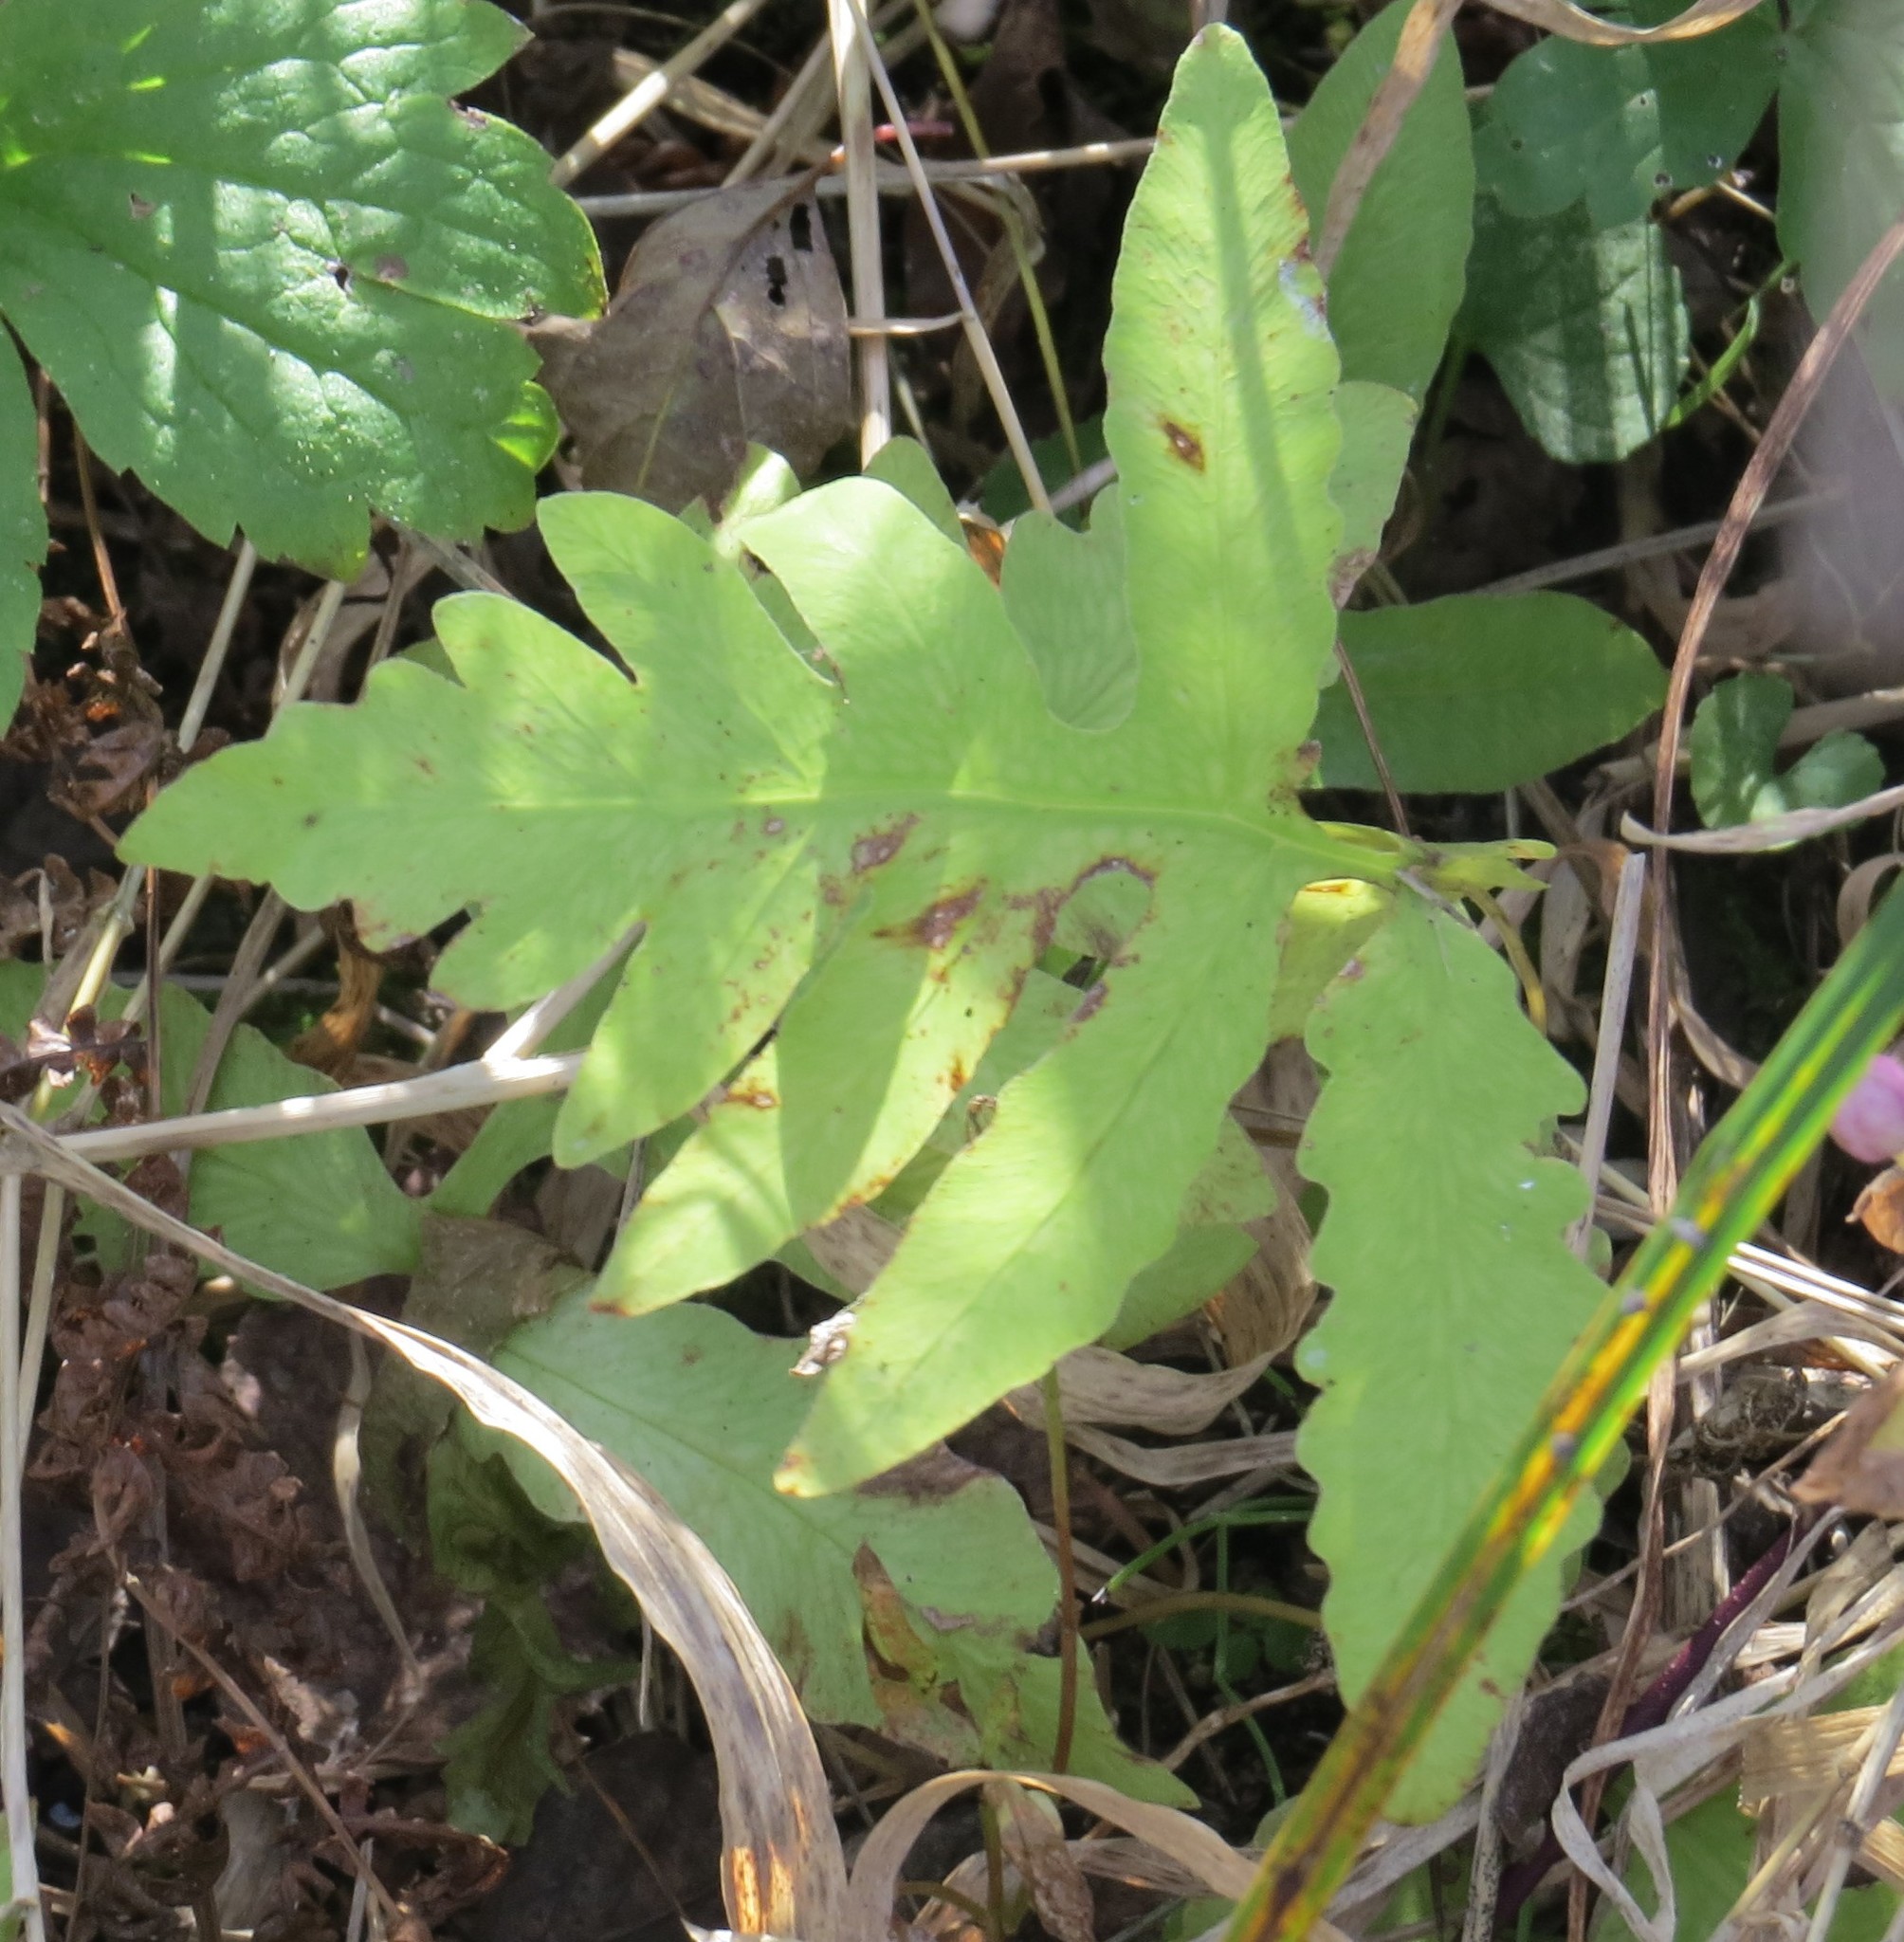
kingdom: Plantae
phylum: Tracheophyta
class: Polypodiopsida
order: Polypodiales
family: Onocleaceae
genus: Onoclea
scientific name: Onoclea sensibilis
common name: Sensitive fern
